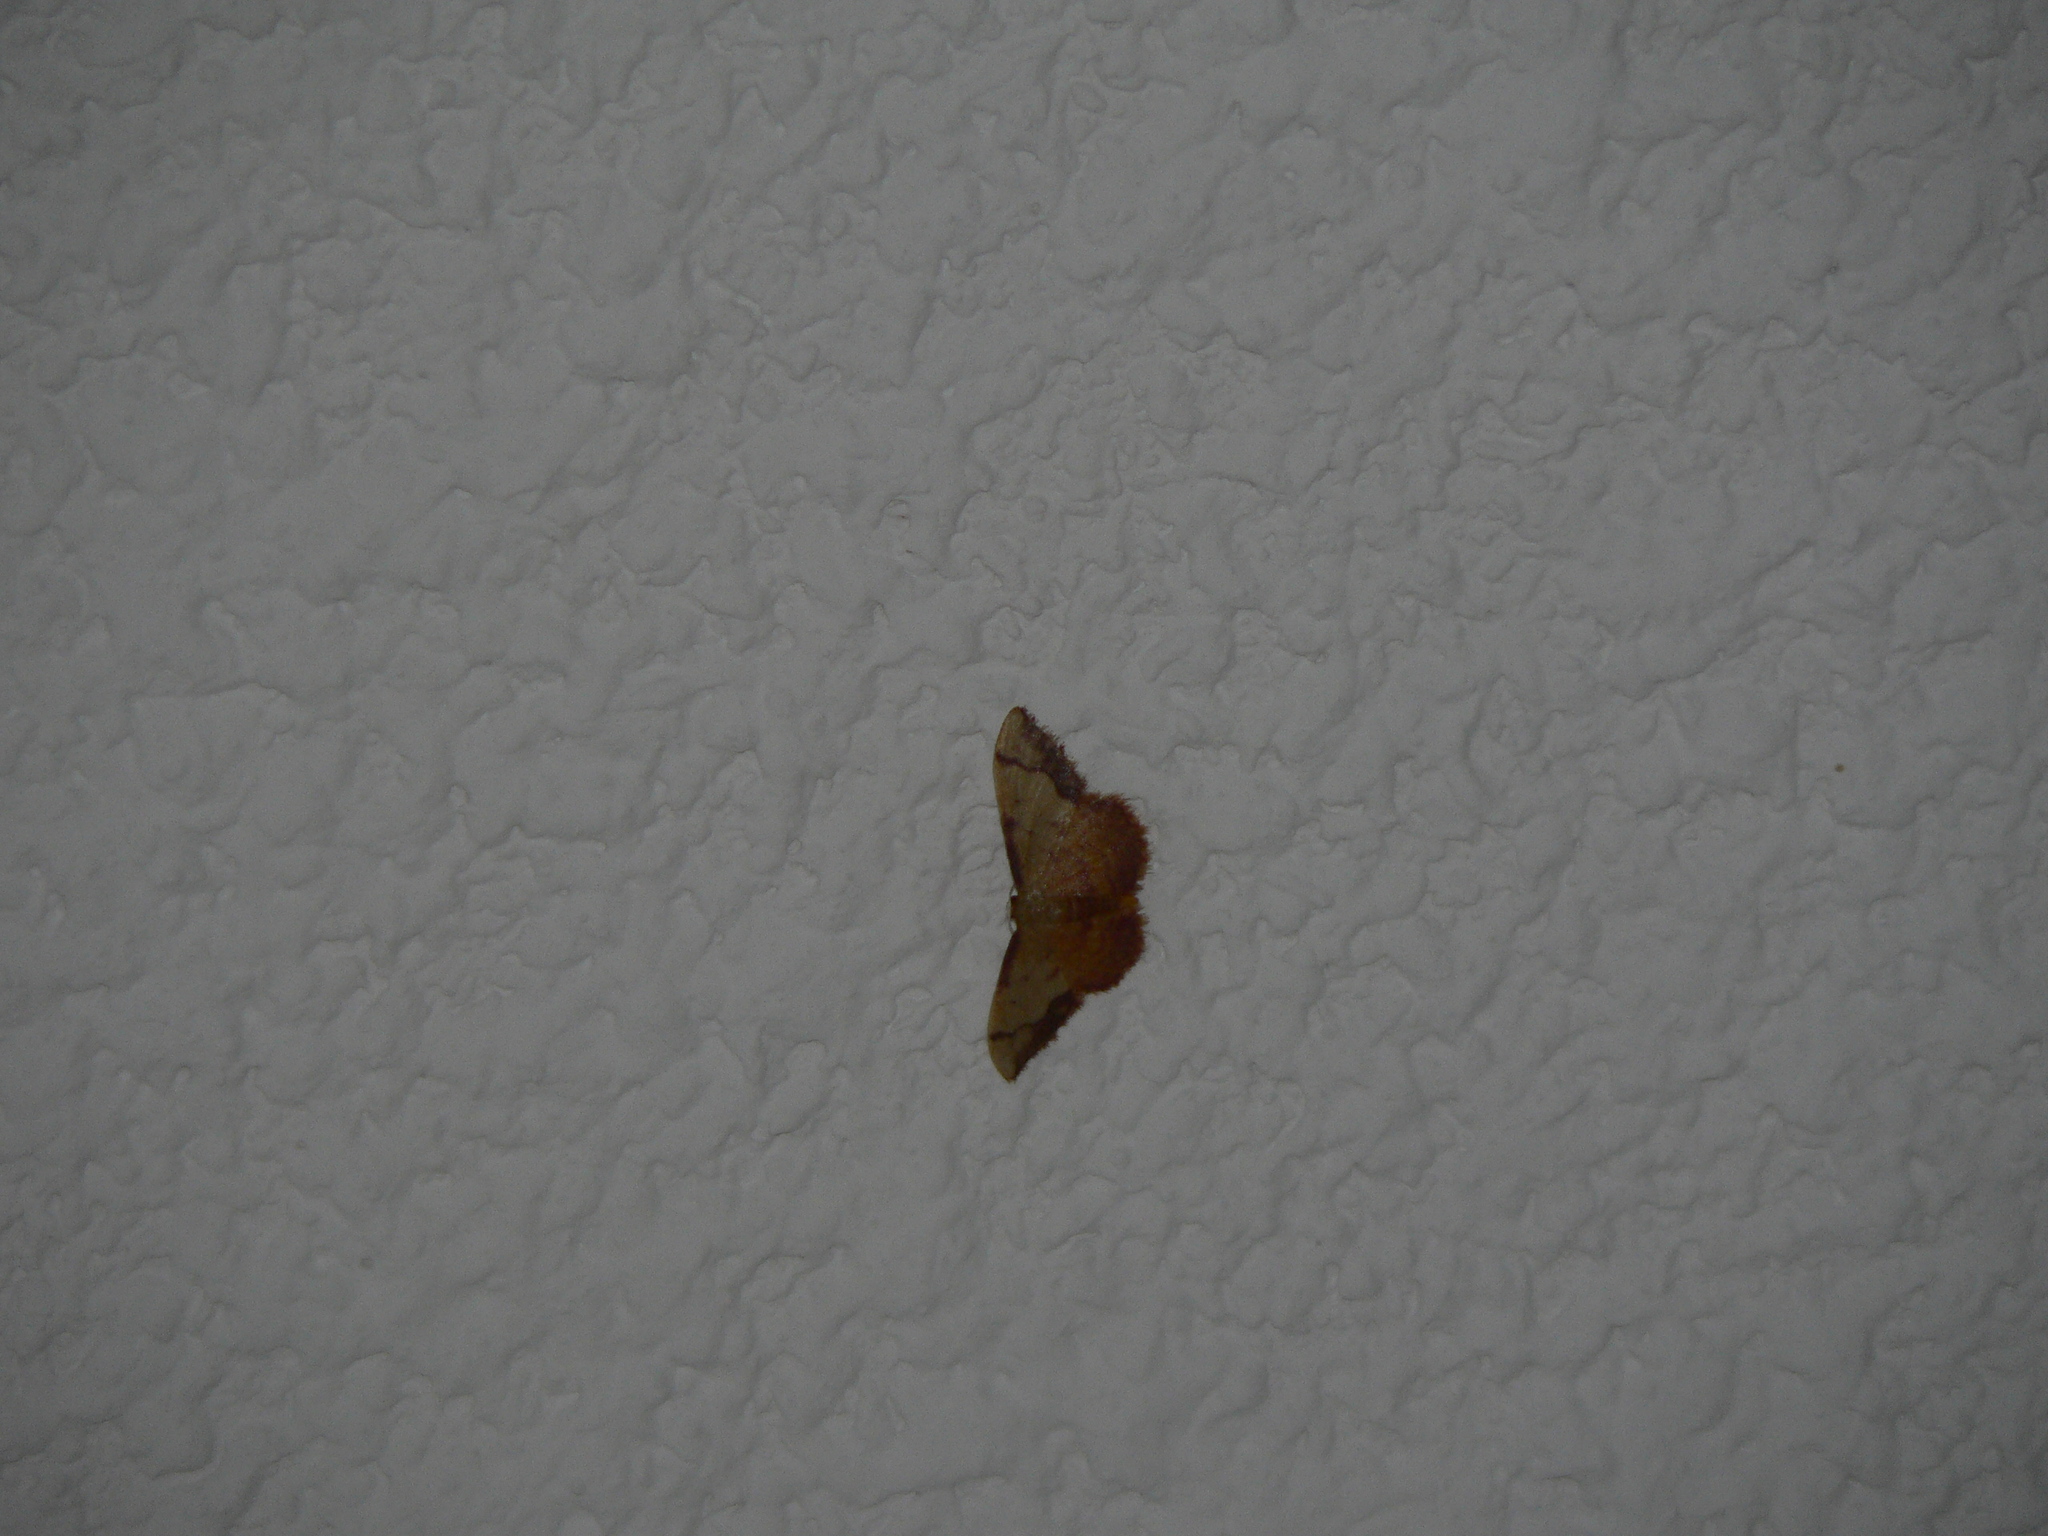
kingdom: Animalia
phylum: Arthropoda
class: Insecta
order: Lepidoptera
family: Geometridae
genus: Idaea
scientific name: Idaea ostrinaria
